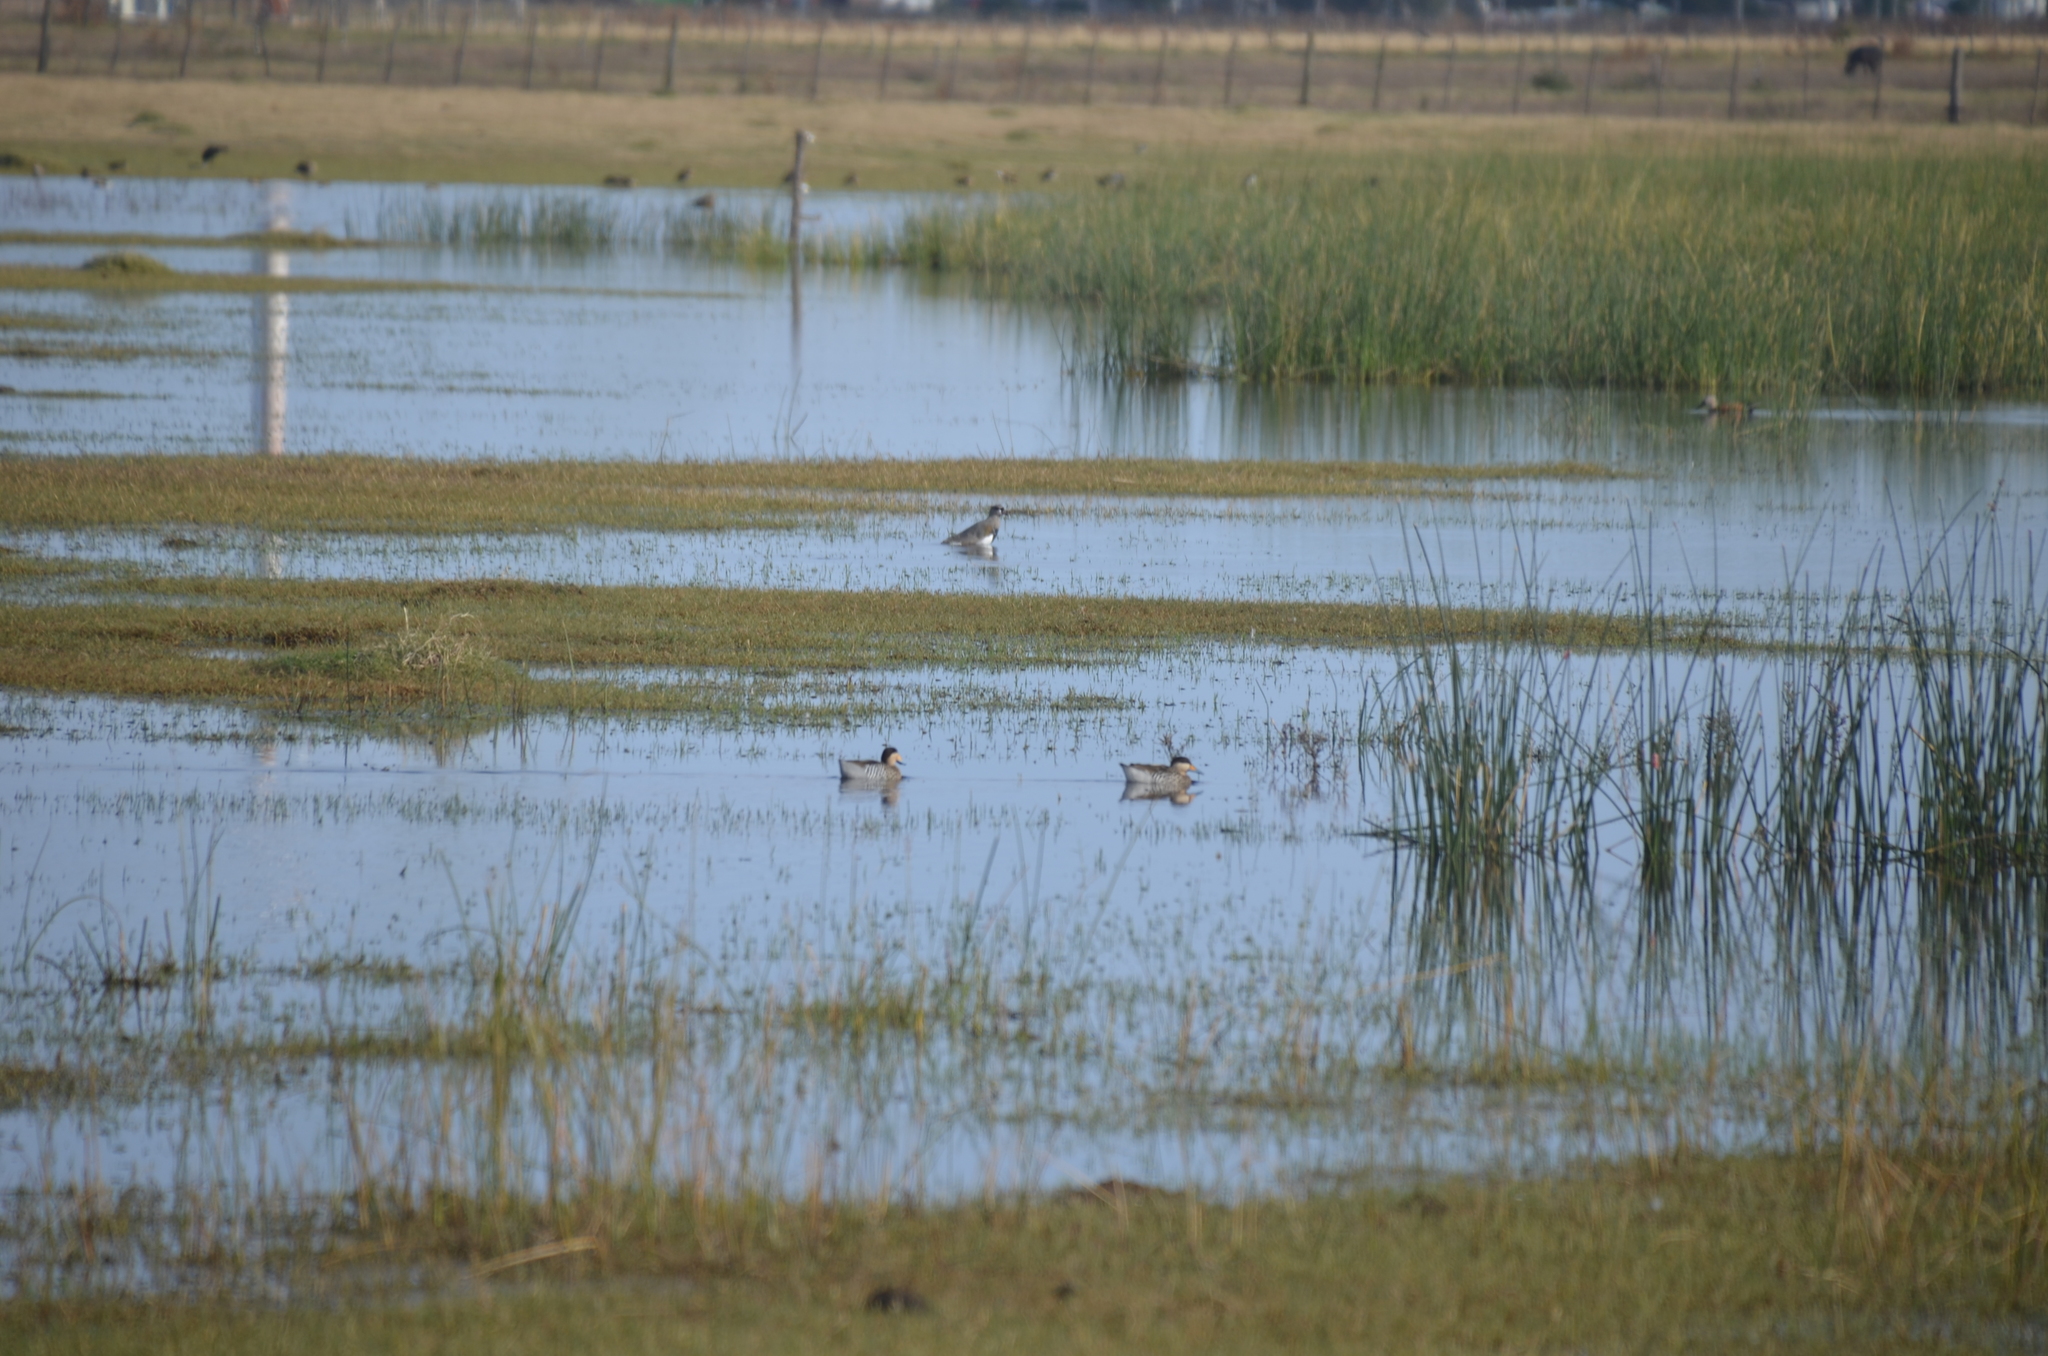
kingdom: Animalia
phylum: Chordata
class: Aves
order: Anseriformes
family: Anatidae
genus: Spatula
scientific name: Spatula versicolor
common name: Silver teal
